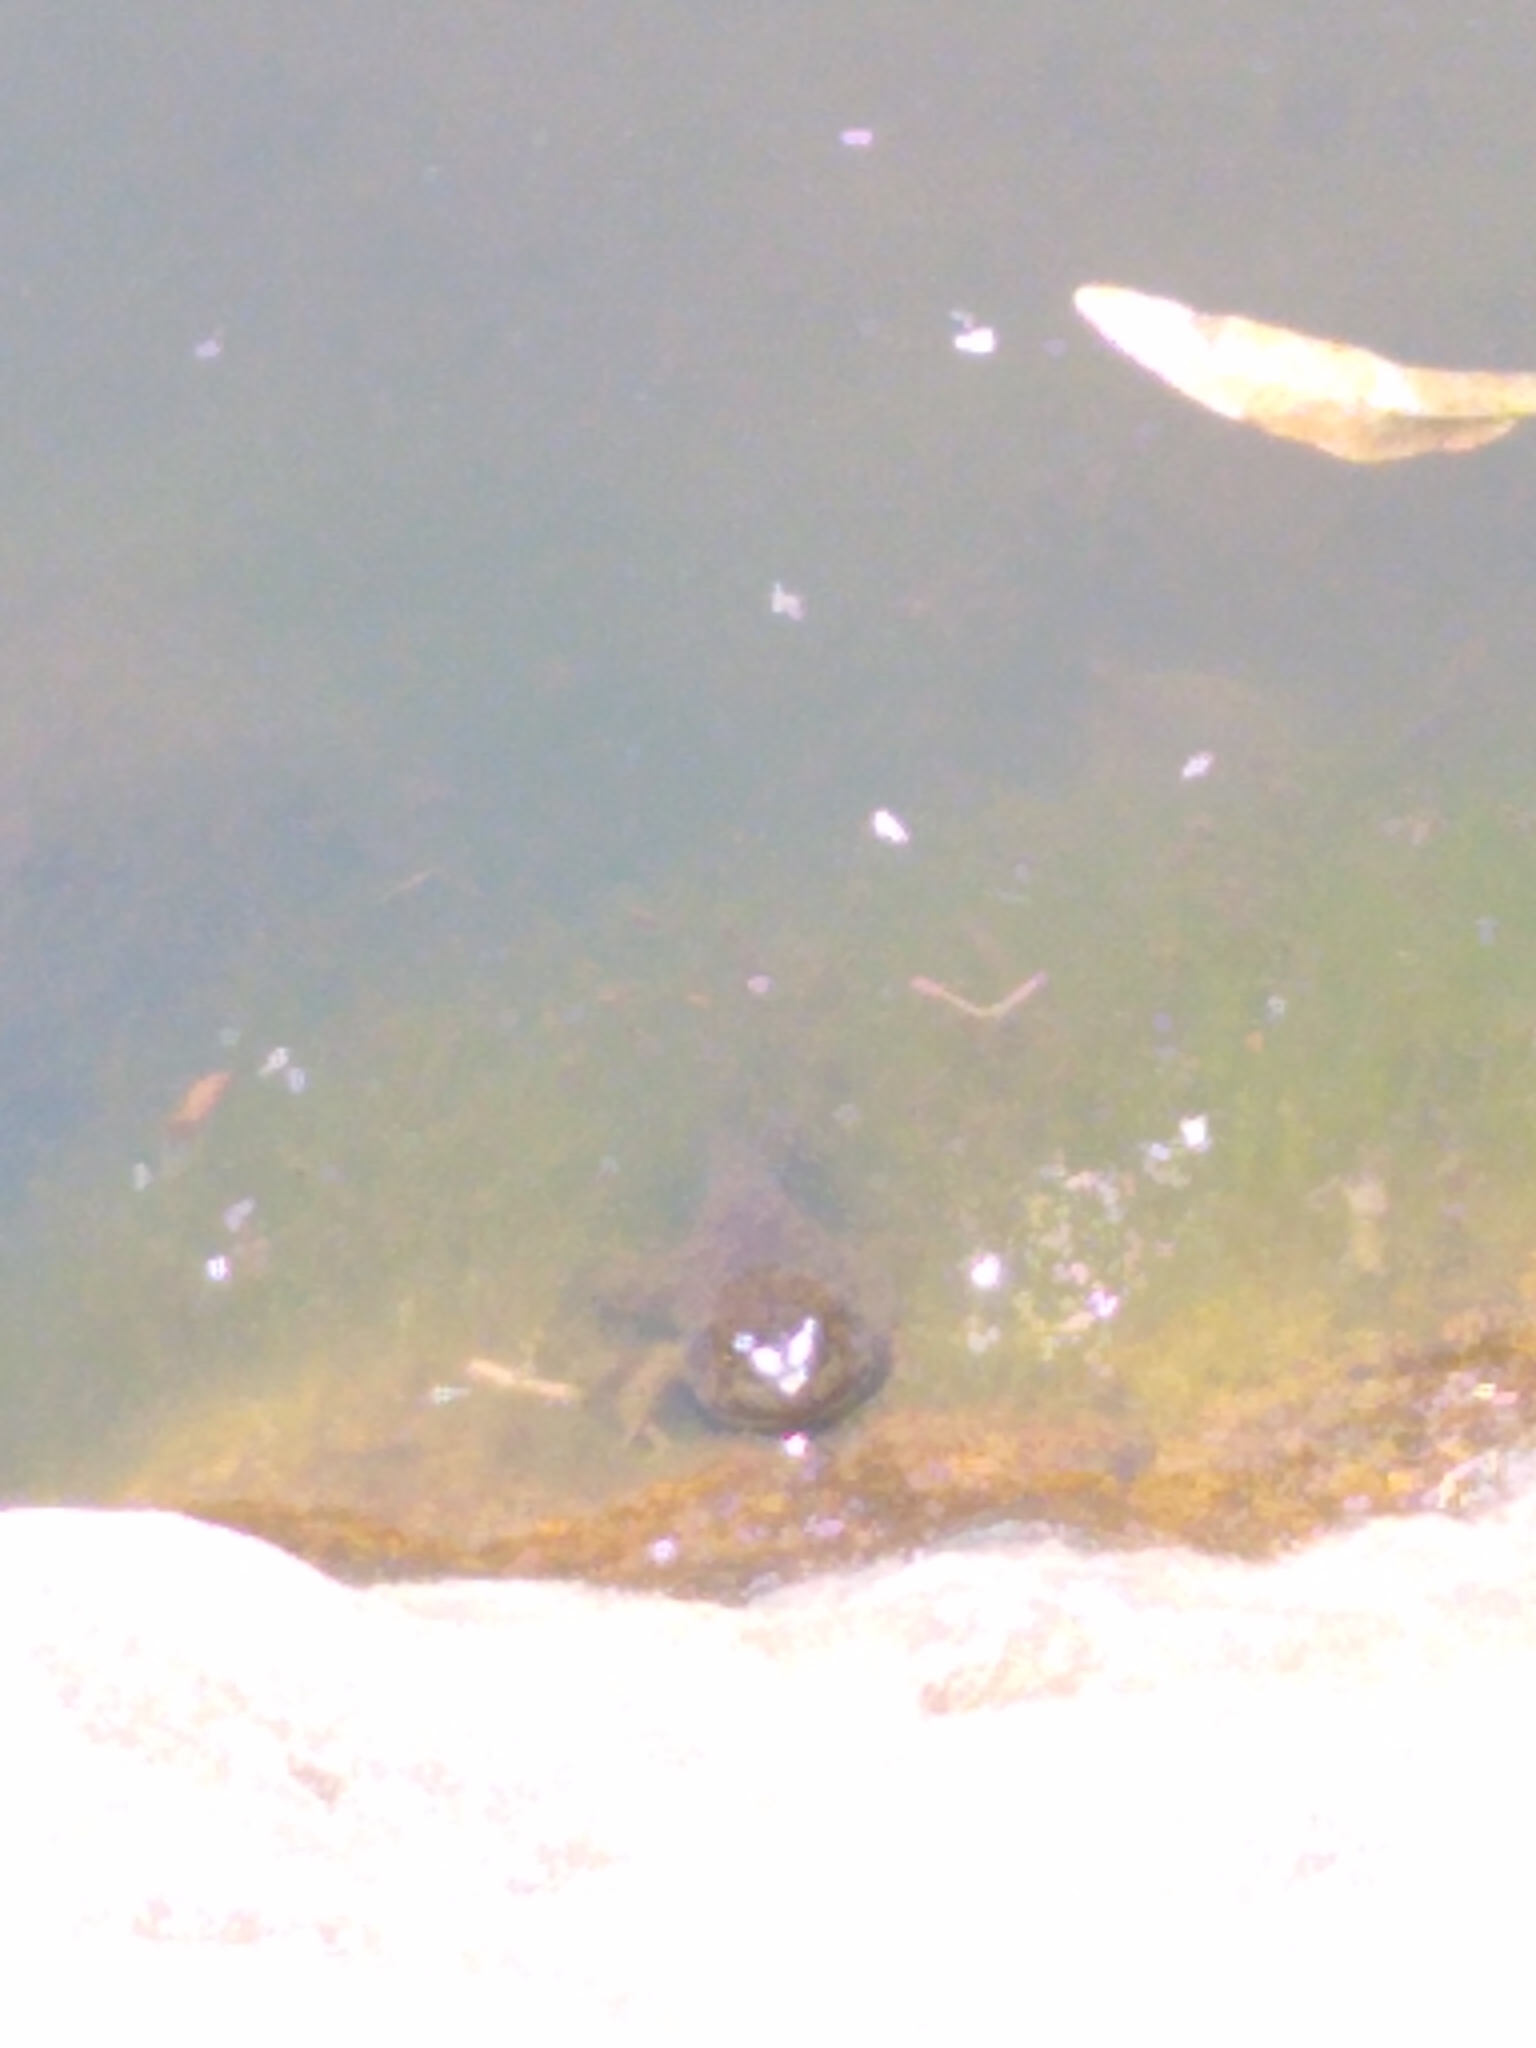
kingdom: Animalia
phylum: Chordata
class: Amphibia
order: Anura
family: Ranidae
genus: Lithobates
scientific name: Lithobates catesbeianus
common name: American bullfrog
